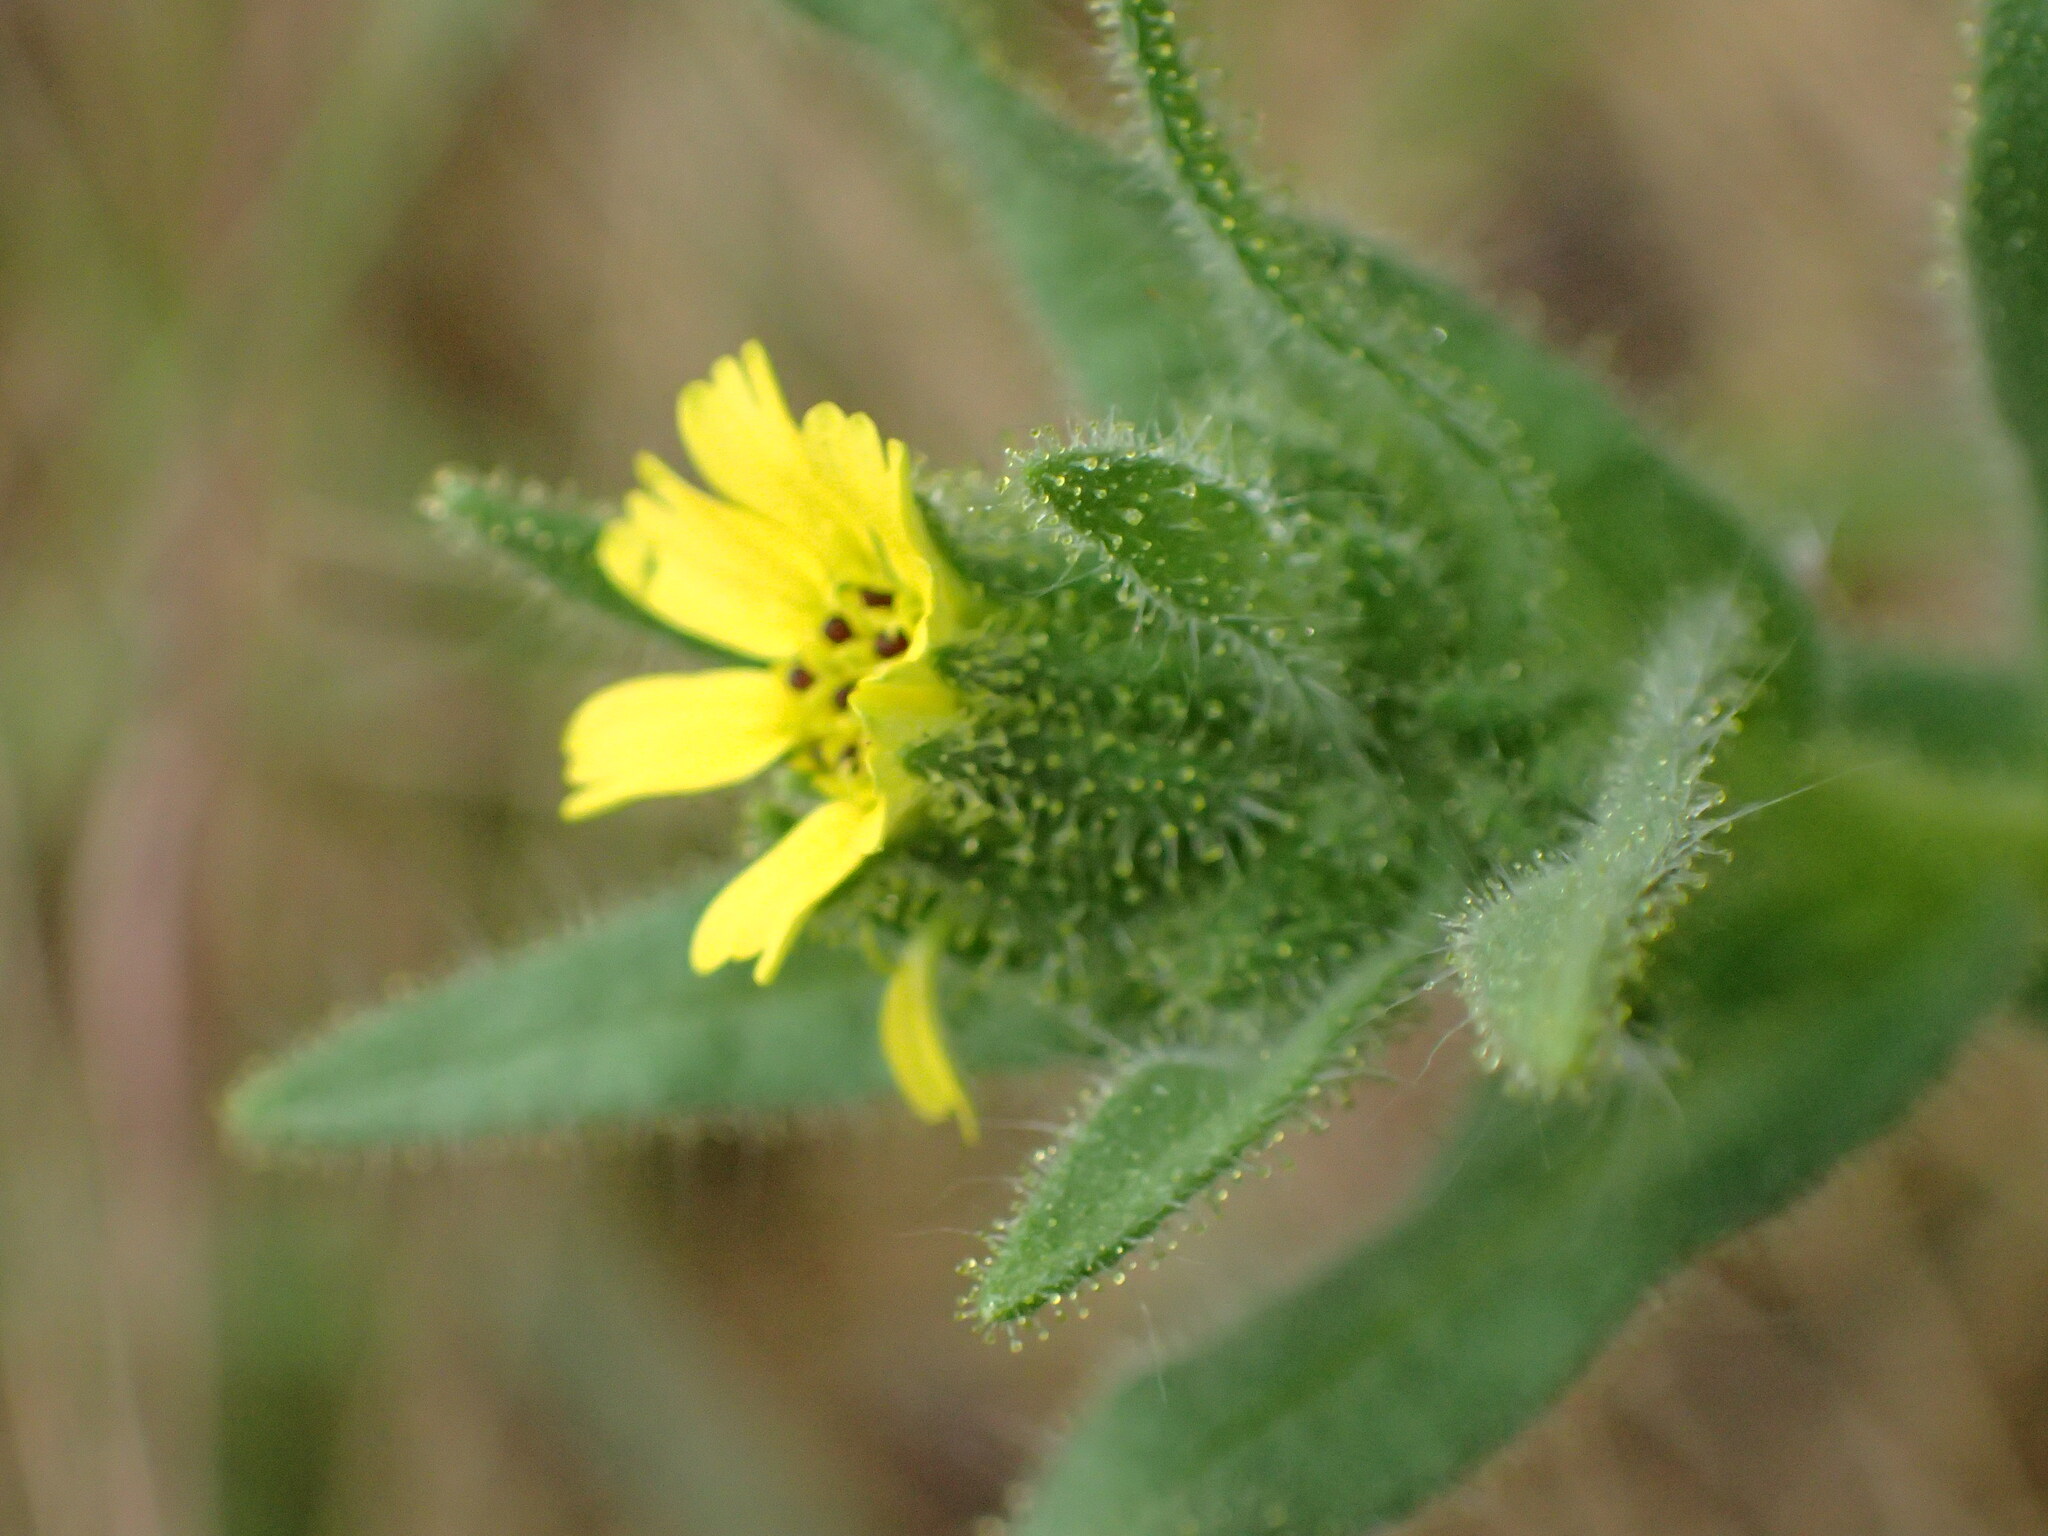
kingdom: Plantae
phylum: Tracheophyta
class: Magnoliopsida
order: Asterales
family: Asteraceae
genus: Madia
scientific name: Madia sativa
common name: Coast tarweed
